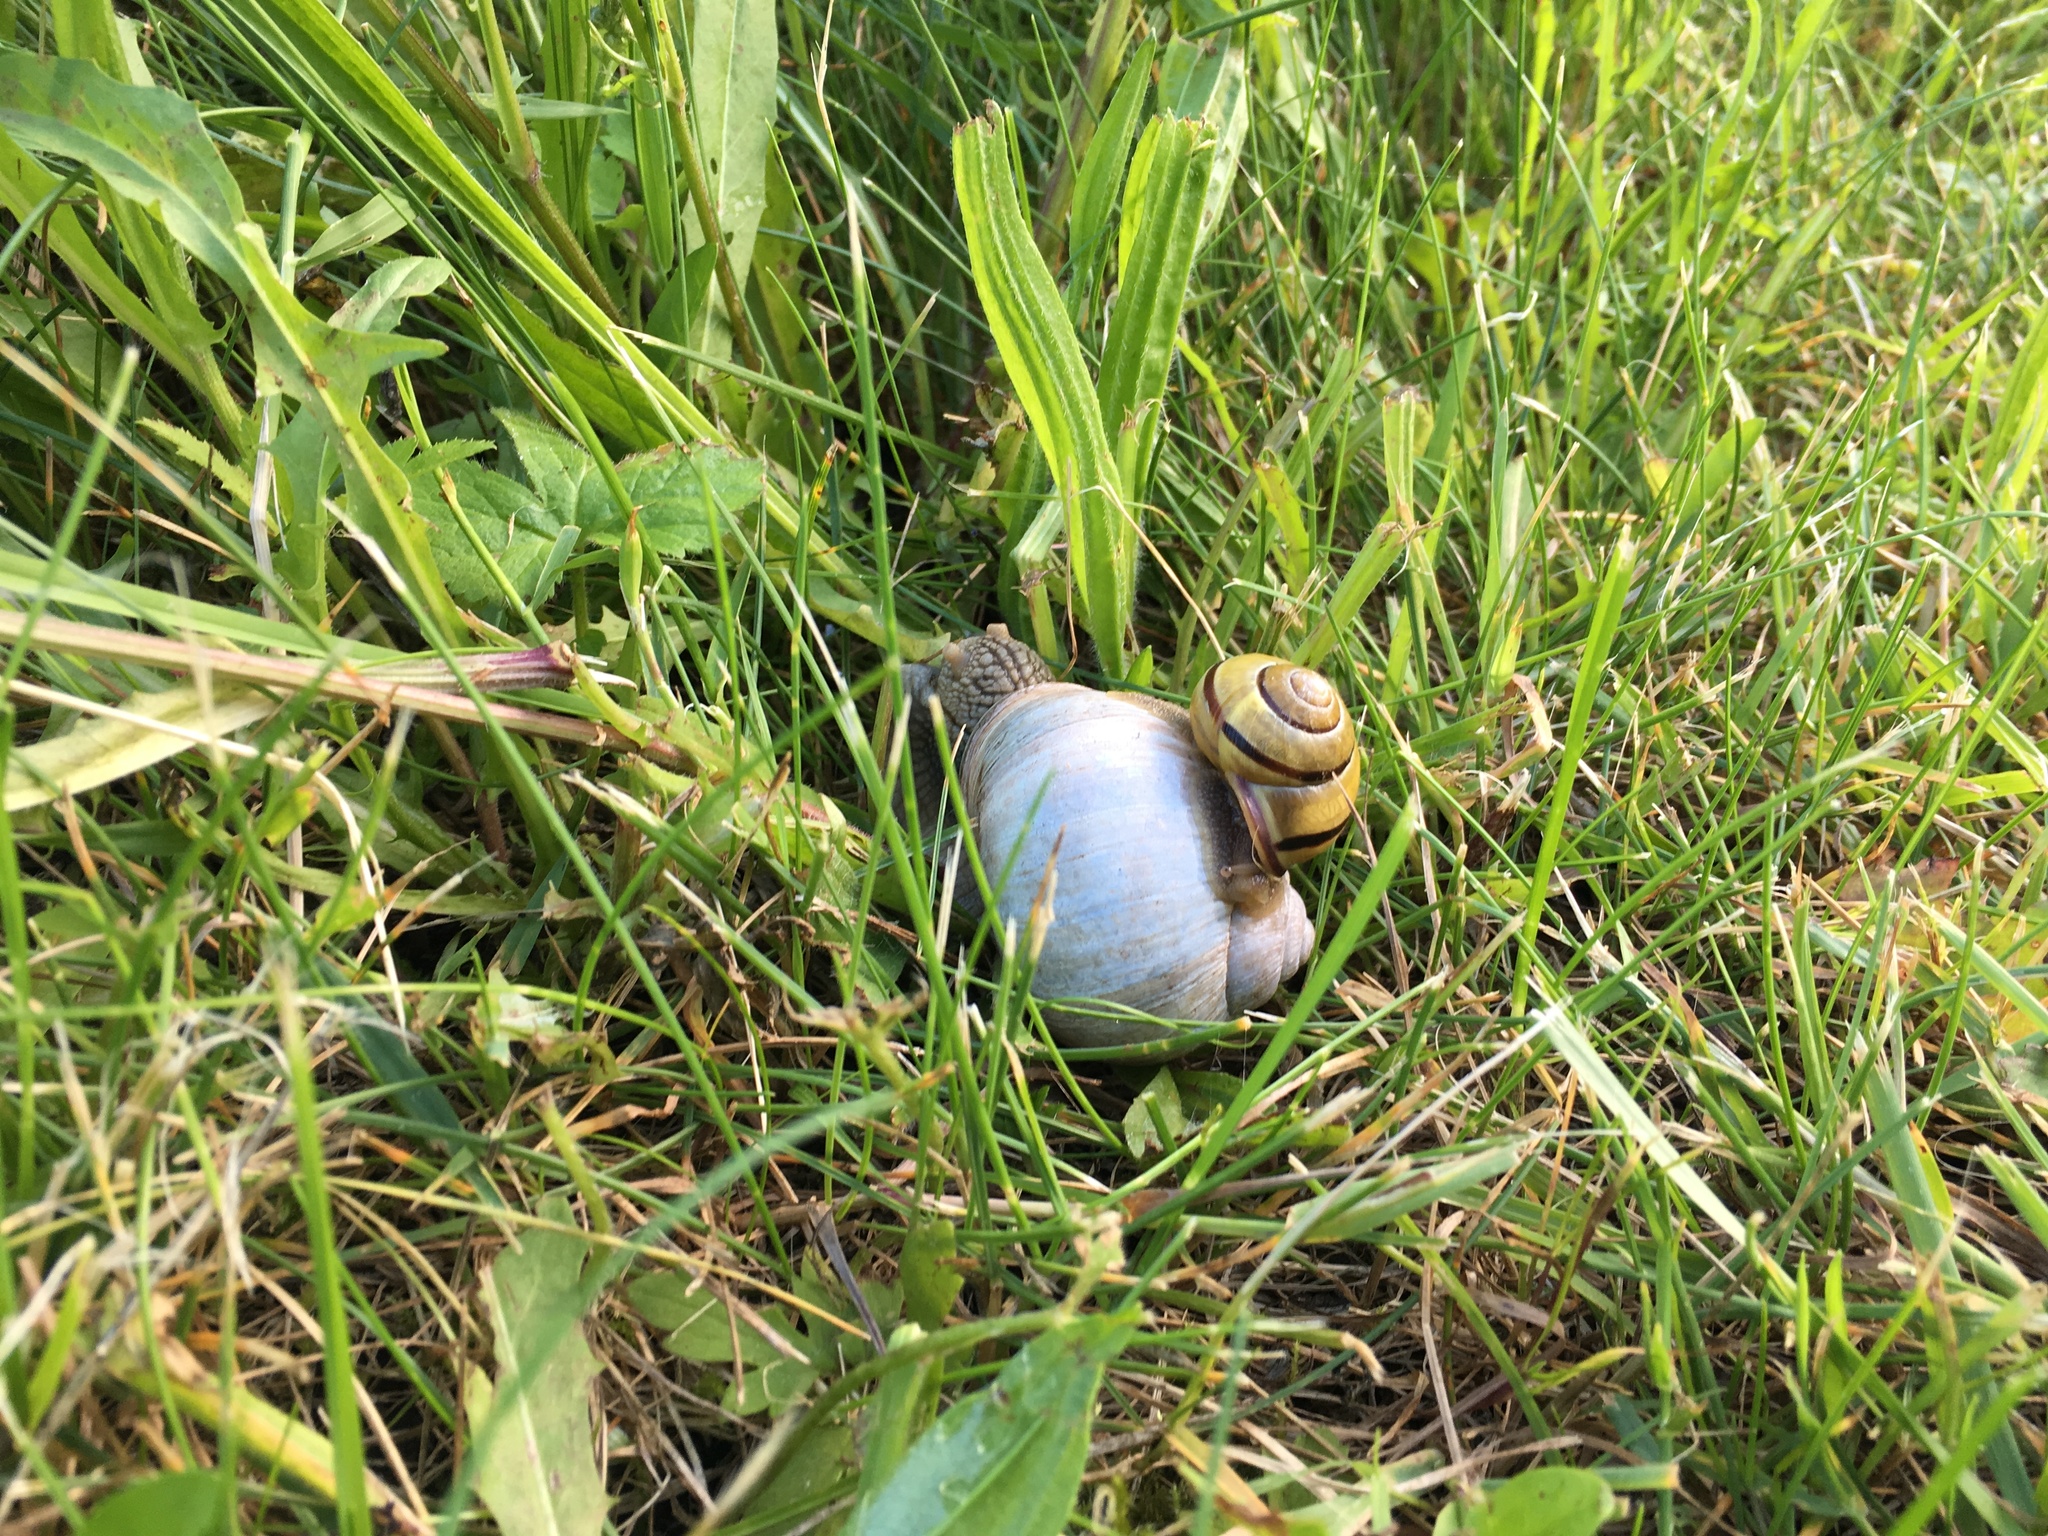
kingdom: Animalia
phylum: Mollusca
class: Gastropoda
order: Stylommatophora
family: Helicidae
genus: Cepaea
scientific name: Cepaea nemoralis
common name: Grovesnail
